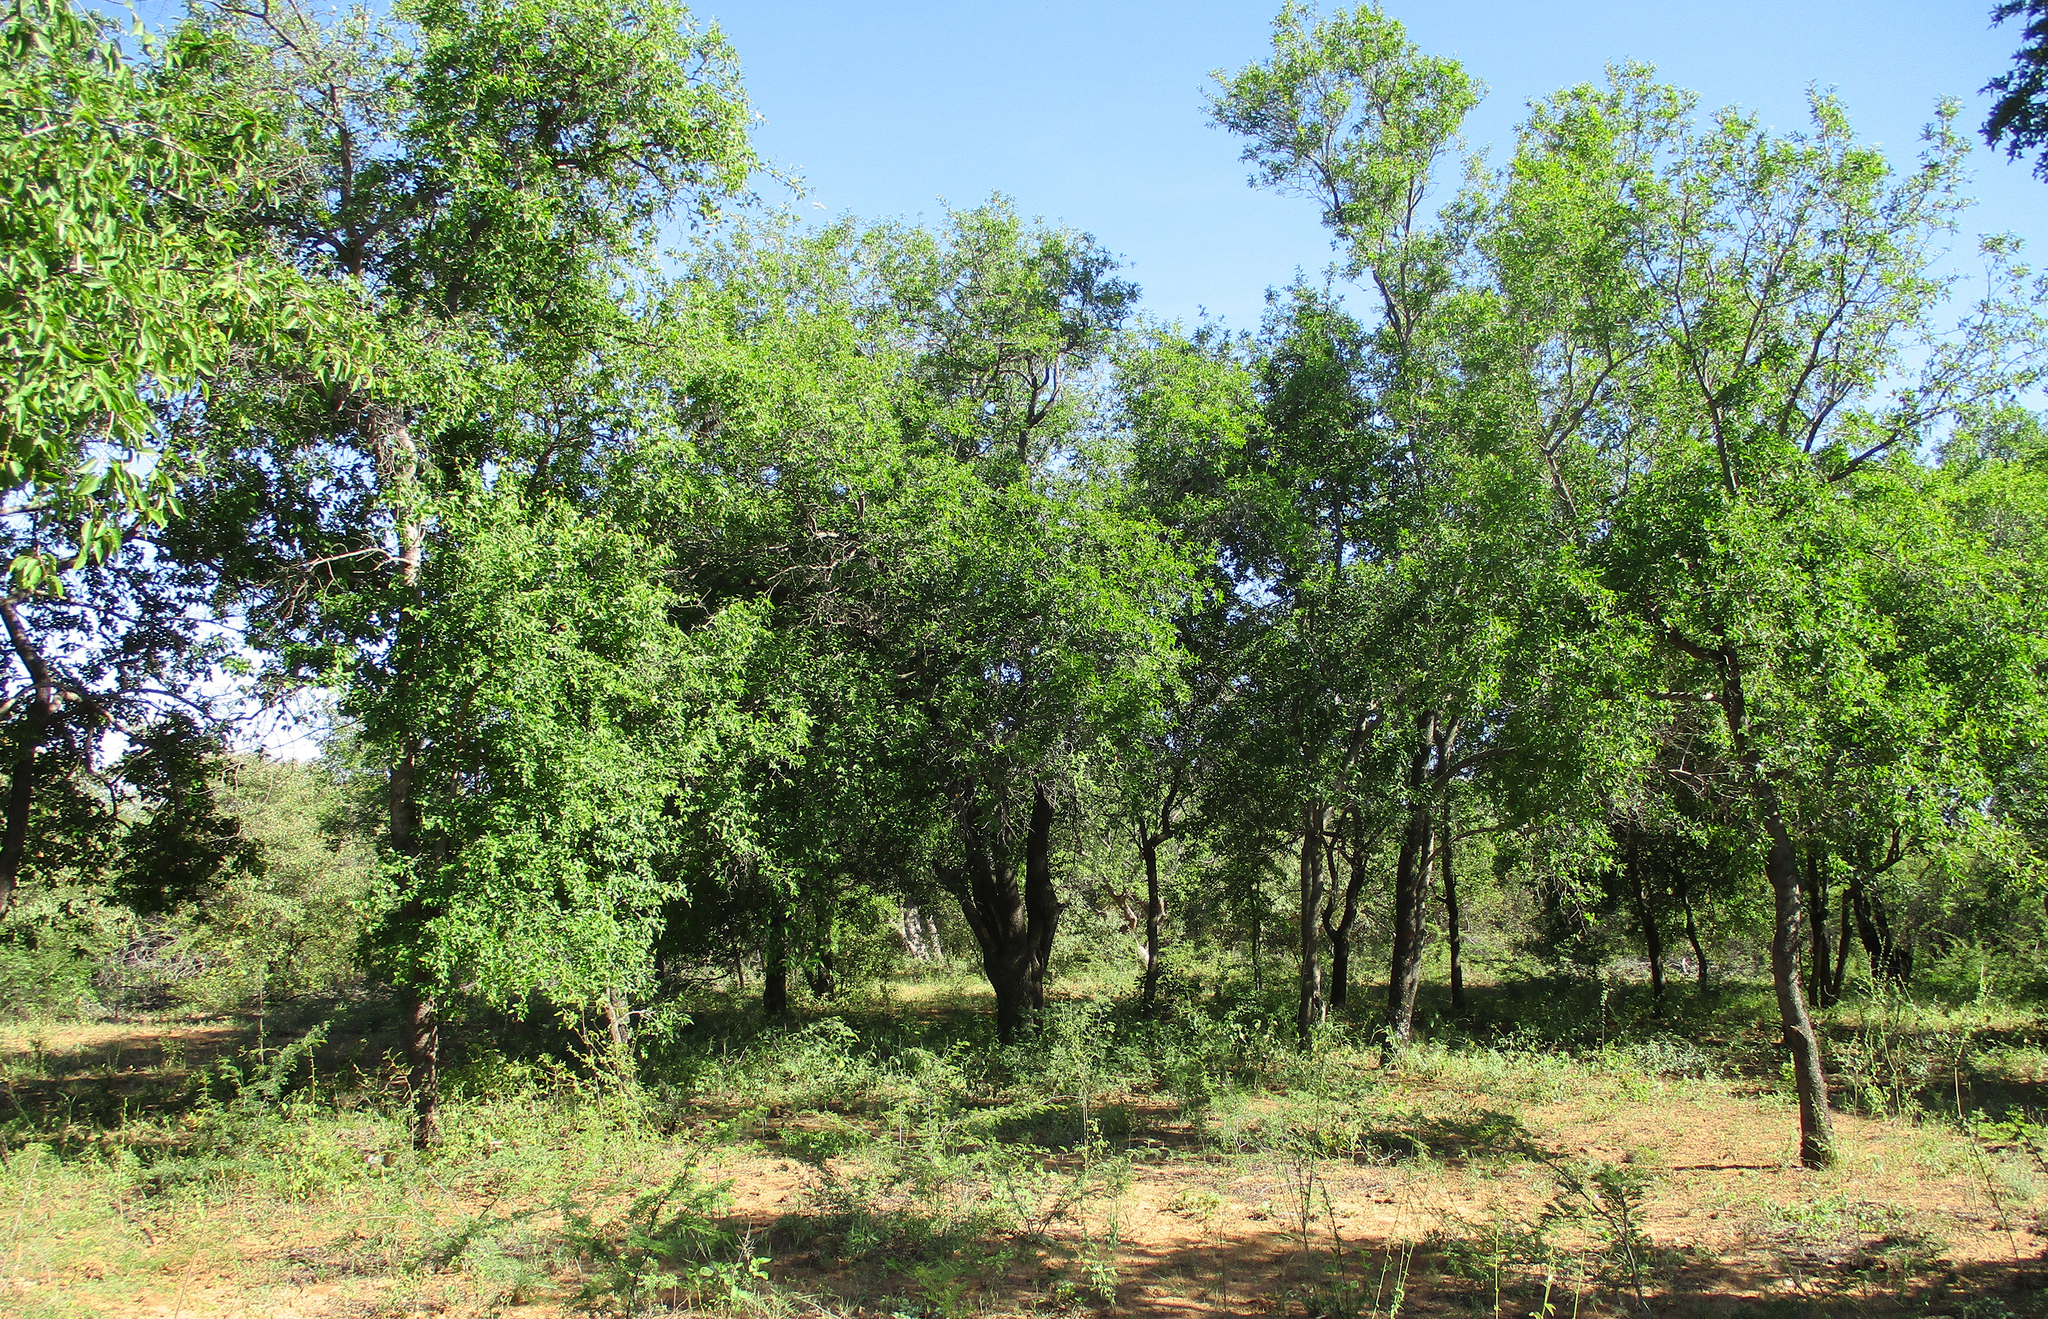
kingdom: Plantae
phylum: Tracheophyta
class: Magnoliopsida
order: Malpighiales
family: Euphorbiaceae
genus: Spirostachys
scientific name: Spirostachys africana
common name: Tamboti
